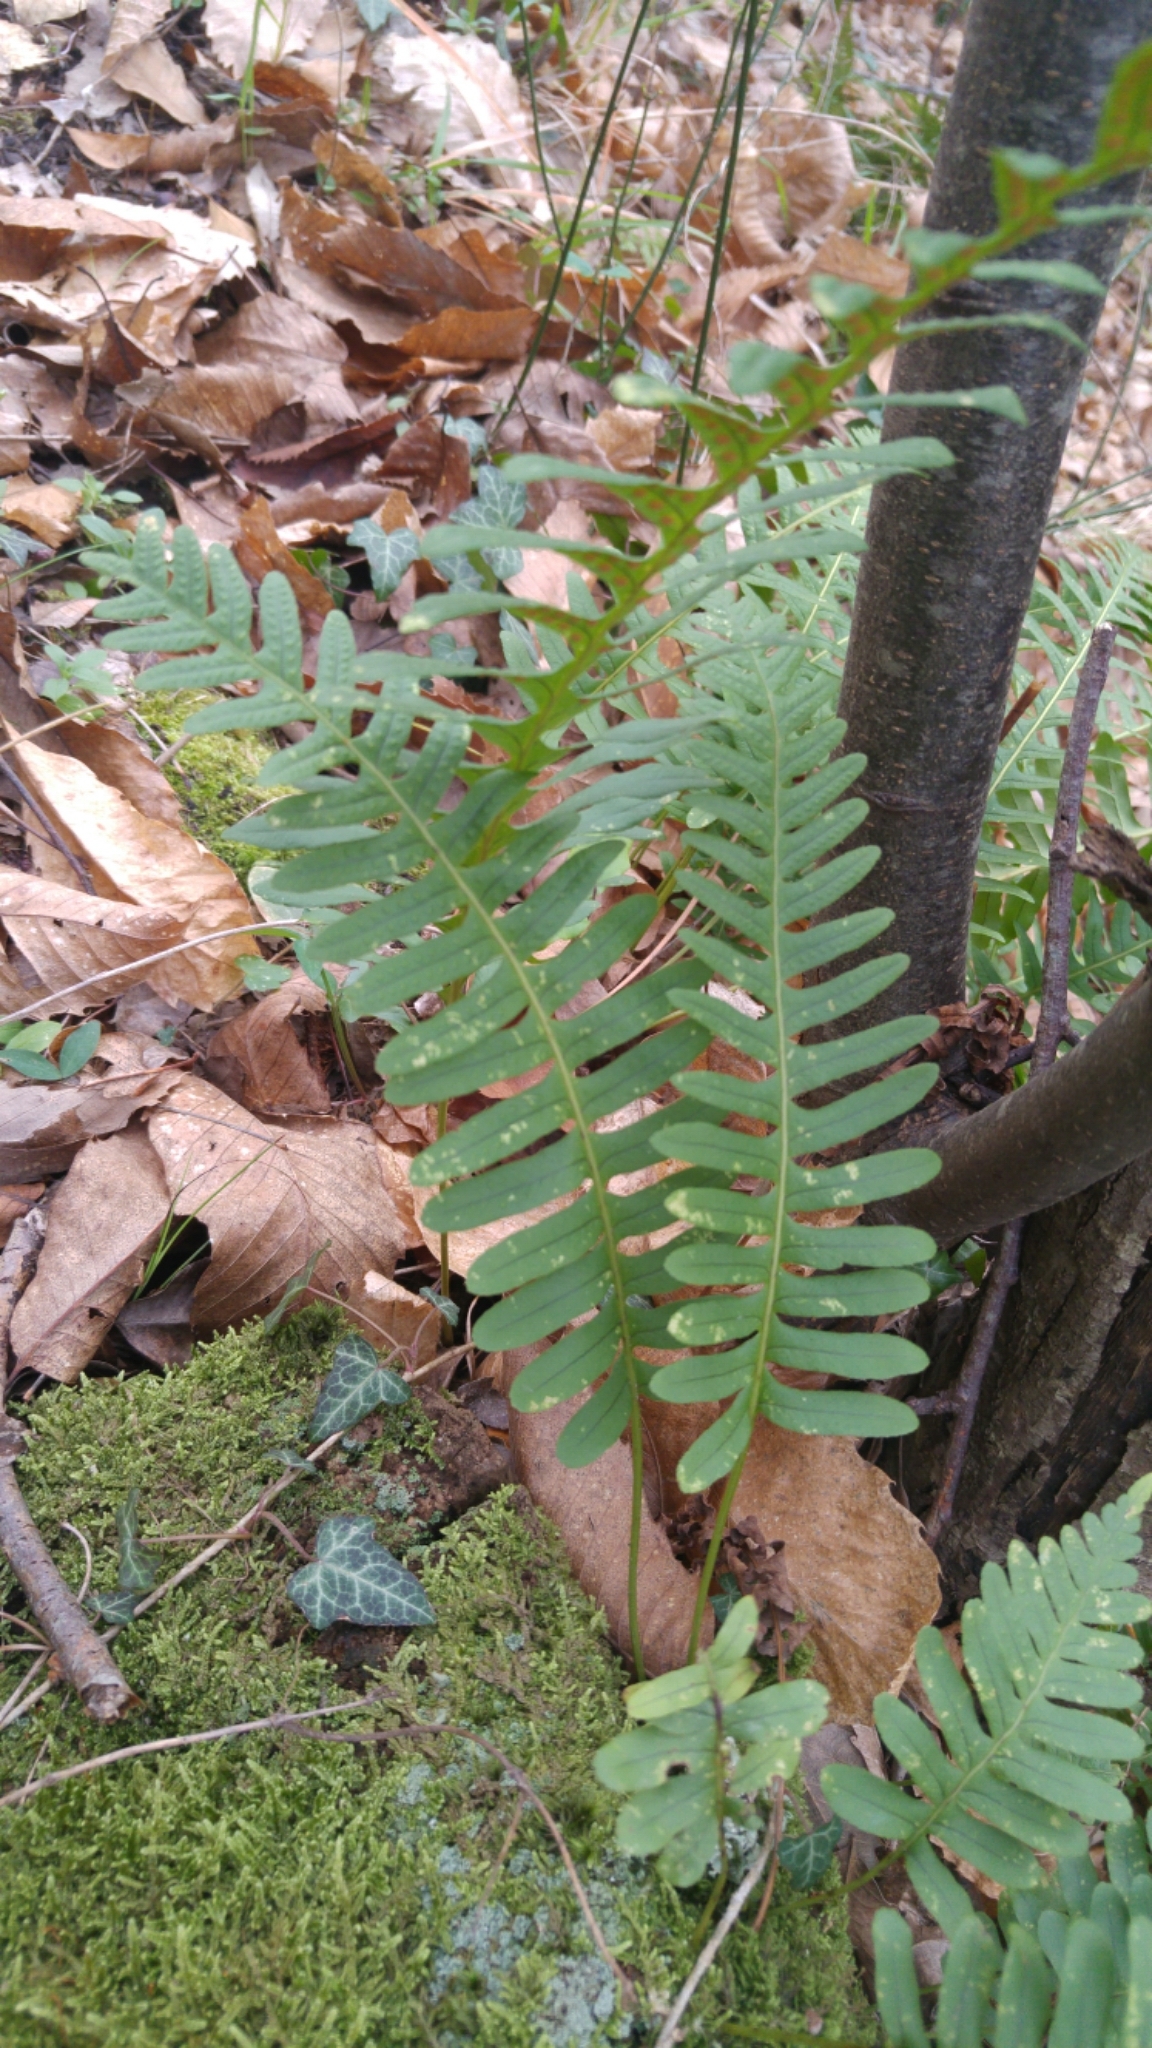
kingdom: Plantae
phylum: Tracheophyta
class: Polypodiopsida
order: Polypodiales
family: Polypodiaceae
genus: Polypodium
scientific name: Polypodium interjectum
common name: Intermediate polypody
